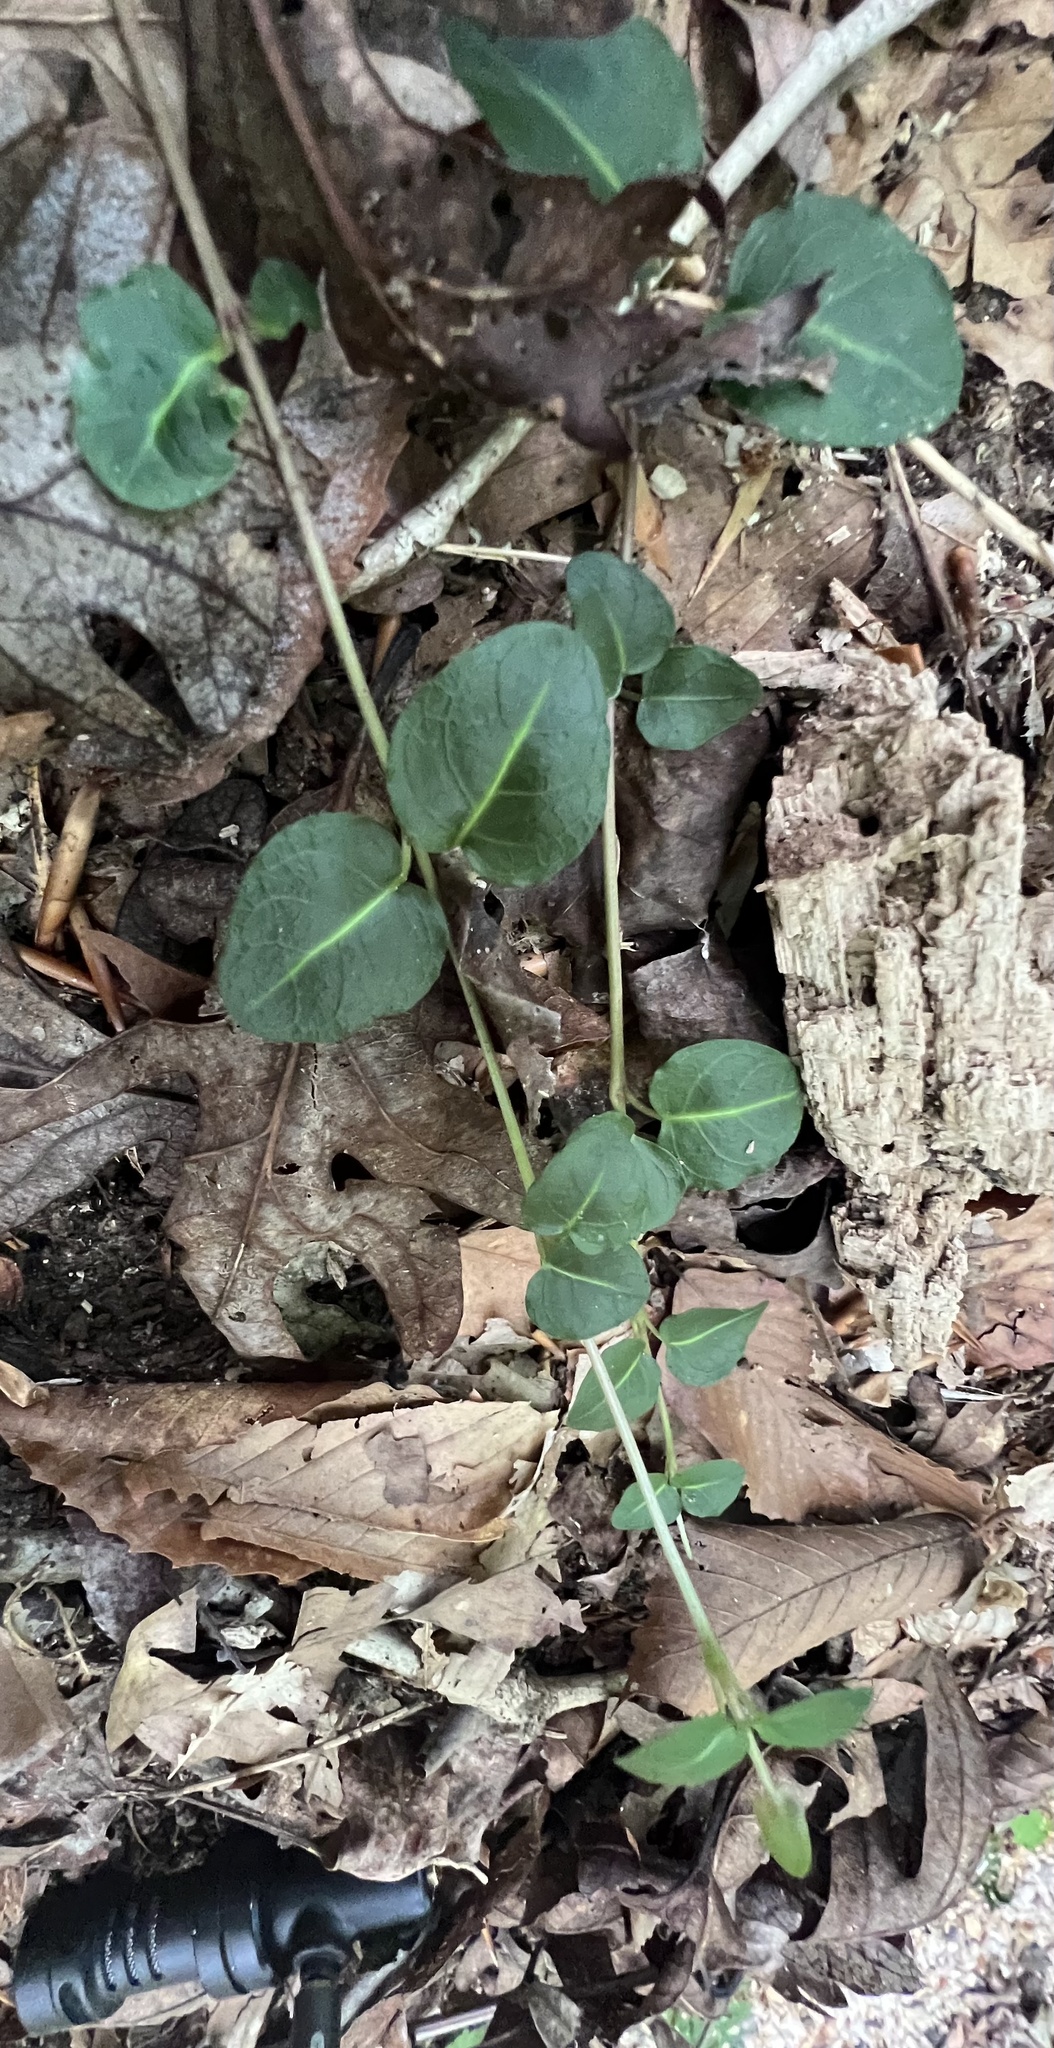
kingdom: Plantae
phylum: Tracheophyta
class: Magnoliopsida
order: Gentianales
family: Rubiaceae
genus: Mitchella
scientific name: Mitchella repens
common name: Partridge-berry
